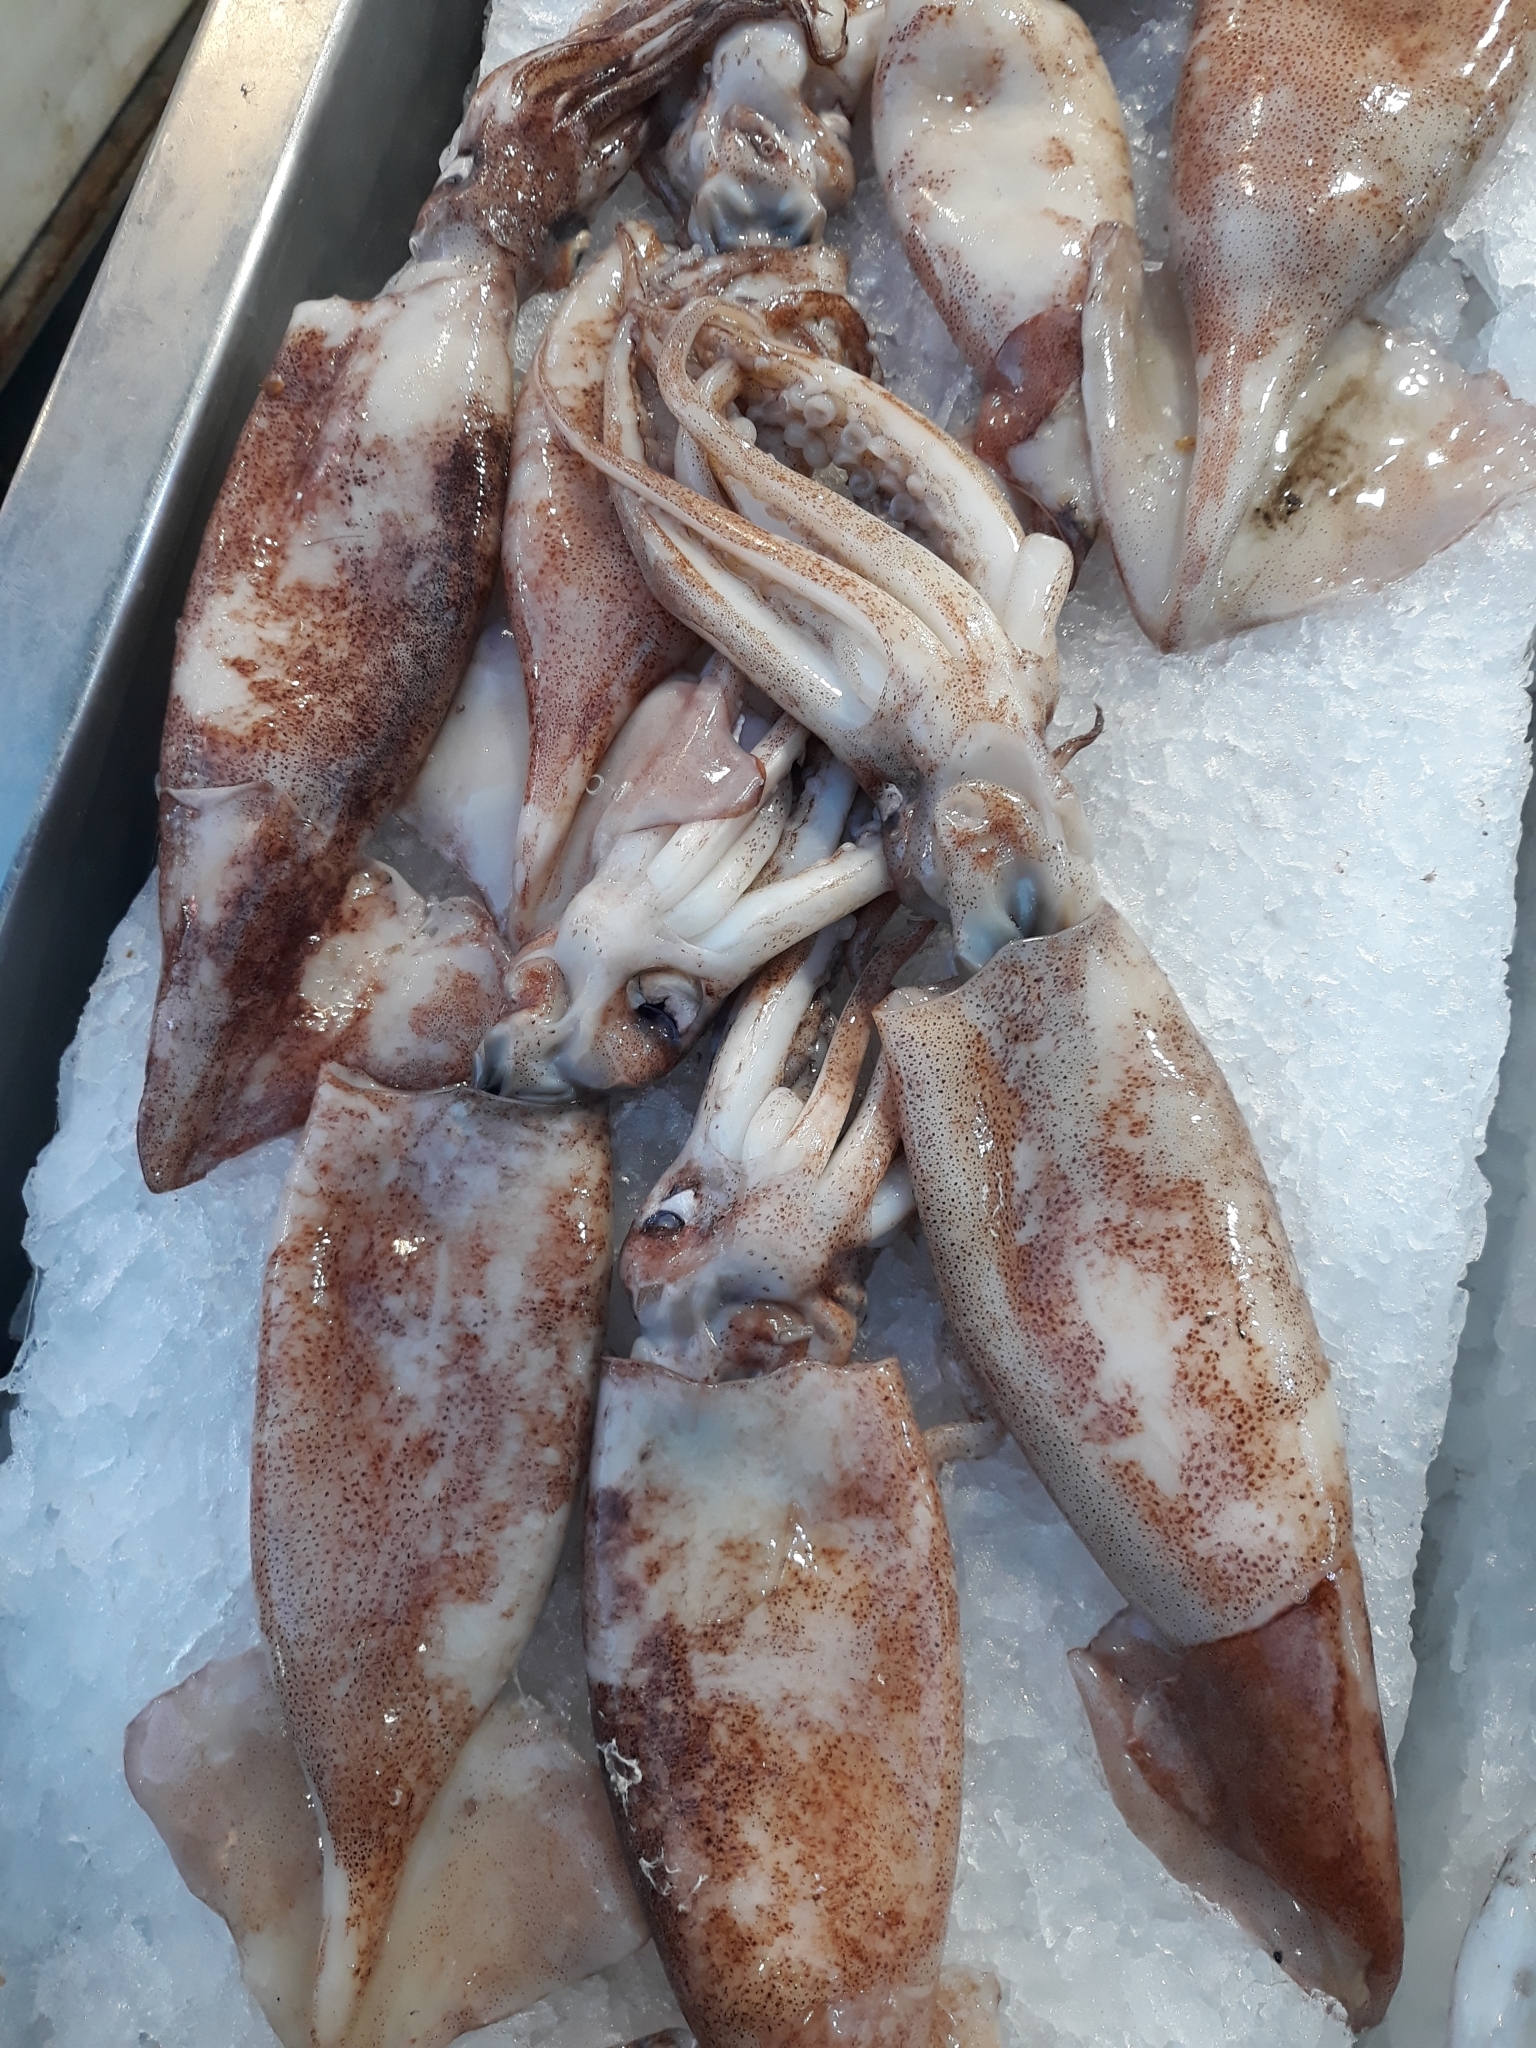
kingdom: Animalia
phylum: Mollusca
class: Cephalopoda
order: Oegopsida
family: Ommastrephidae
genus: Illex
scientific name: Illex coindetii
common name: Broadtail shortfin squid
